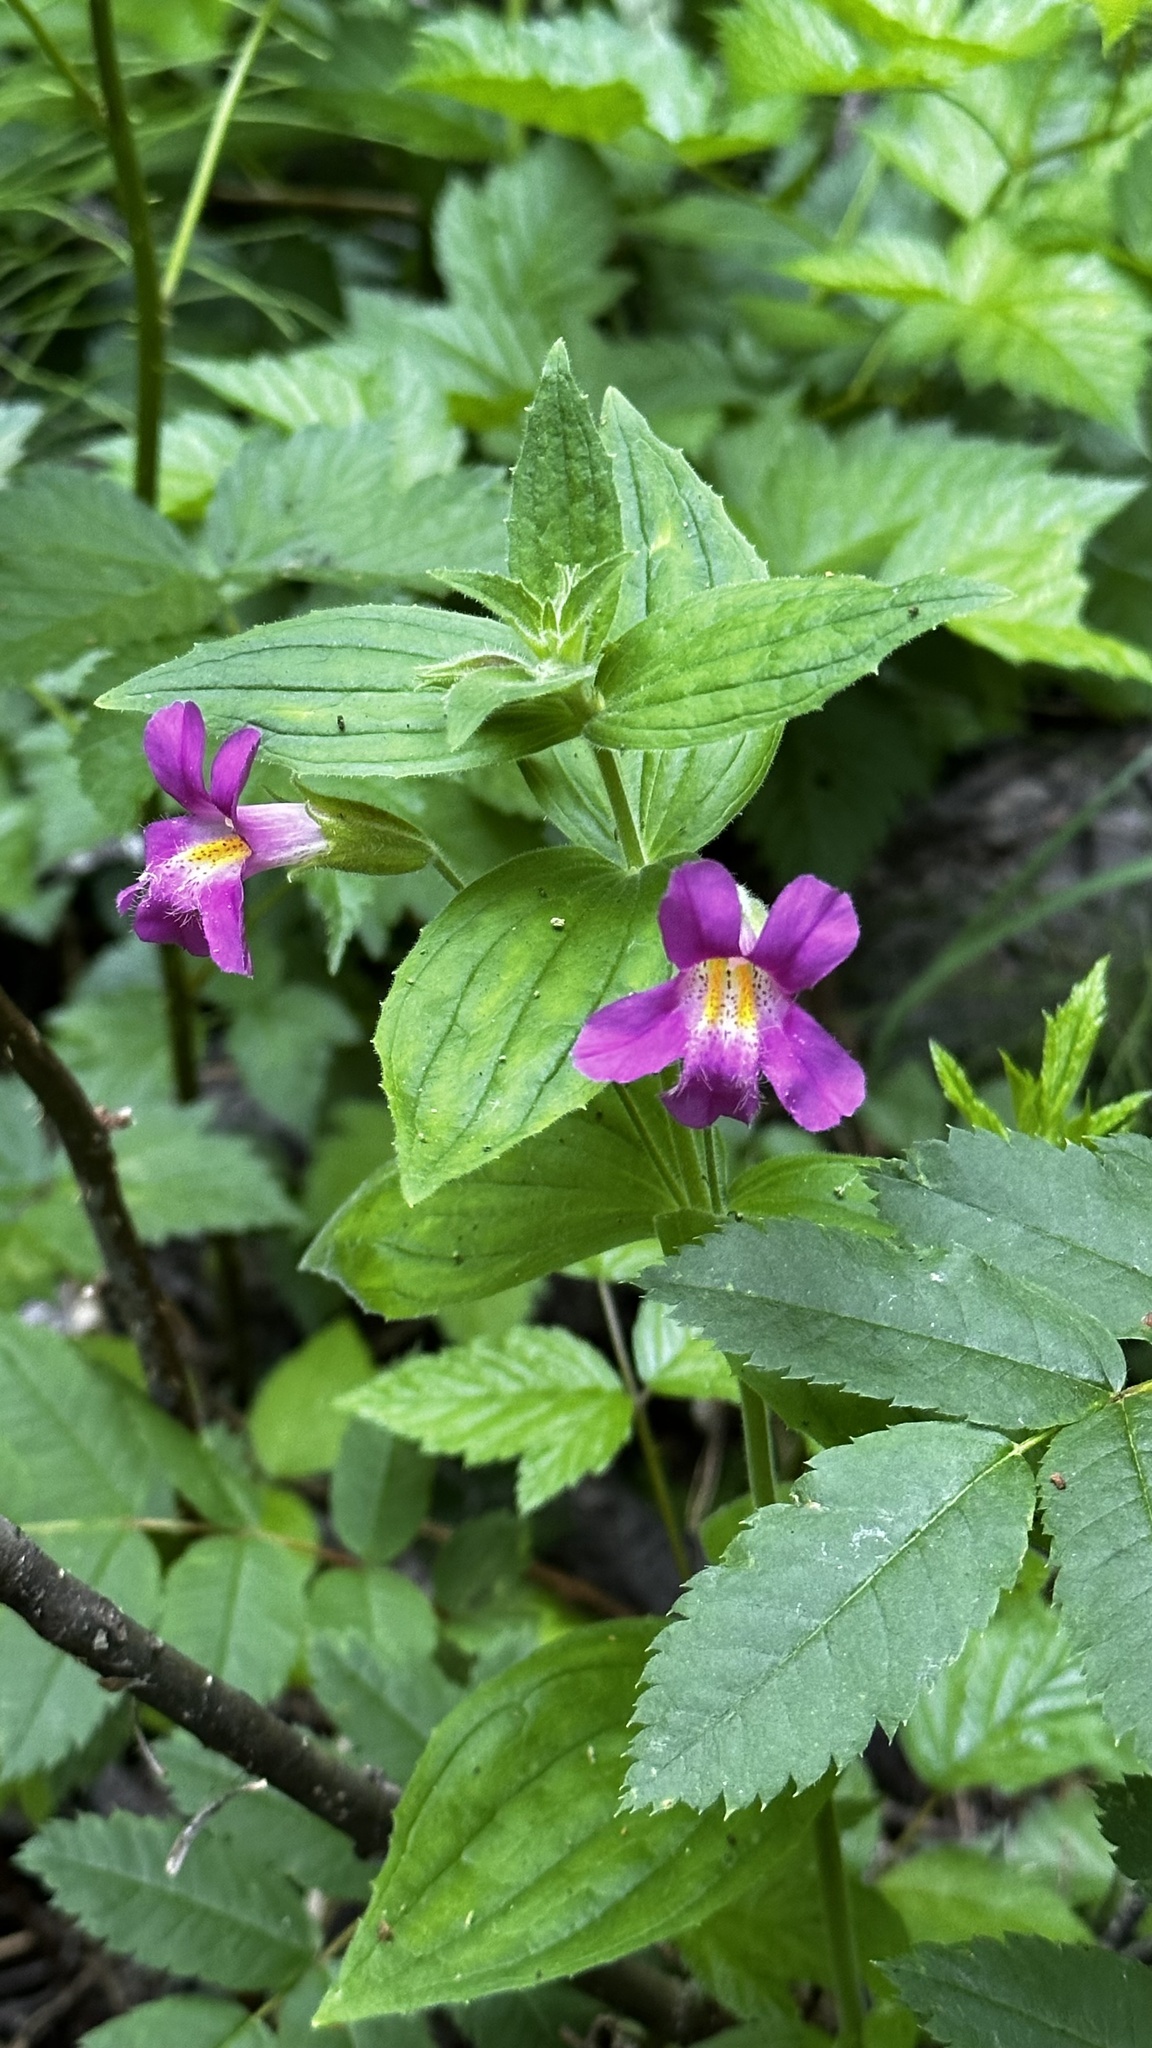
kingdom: Plantae
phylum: Tracheophyta
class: Magnoliopsida
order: Lamiales
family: Phrymaceae
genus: Erythranthe
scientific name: Erythranthe lewisii
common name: Lewis's monkey-flower
